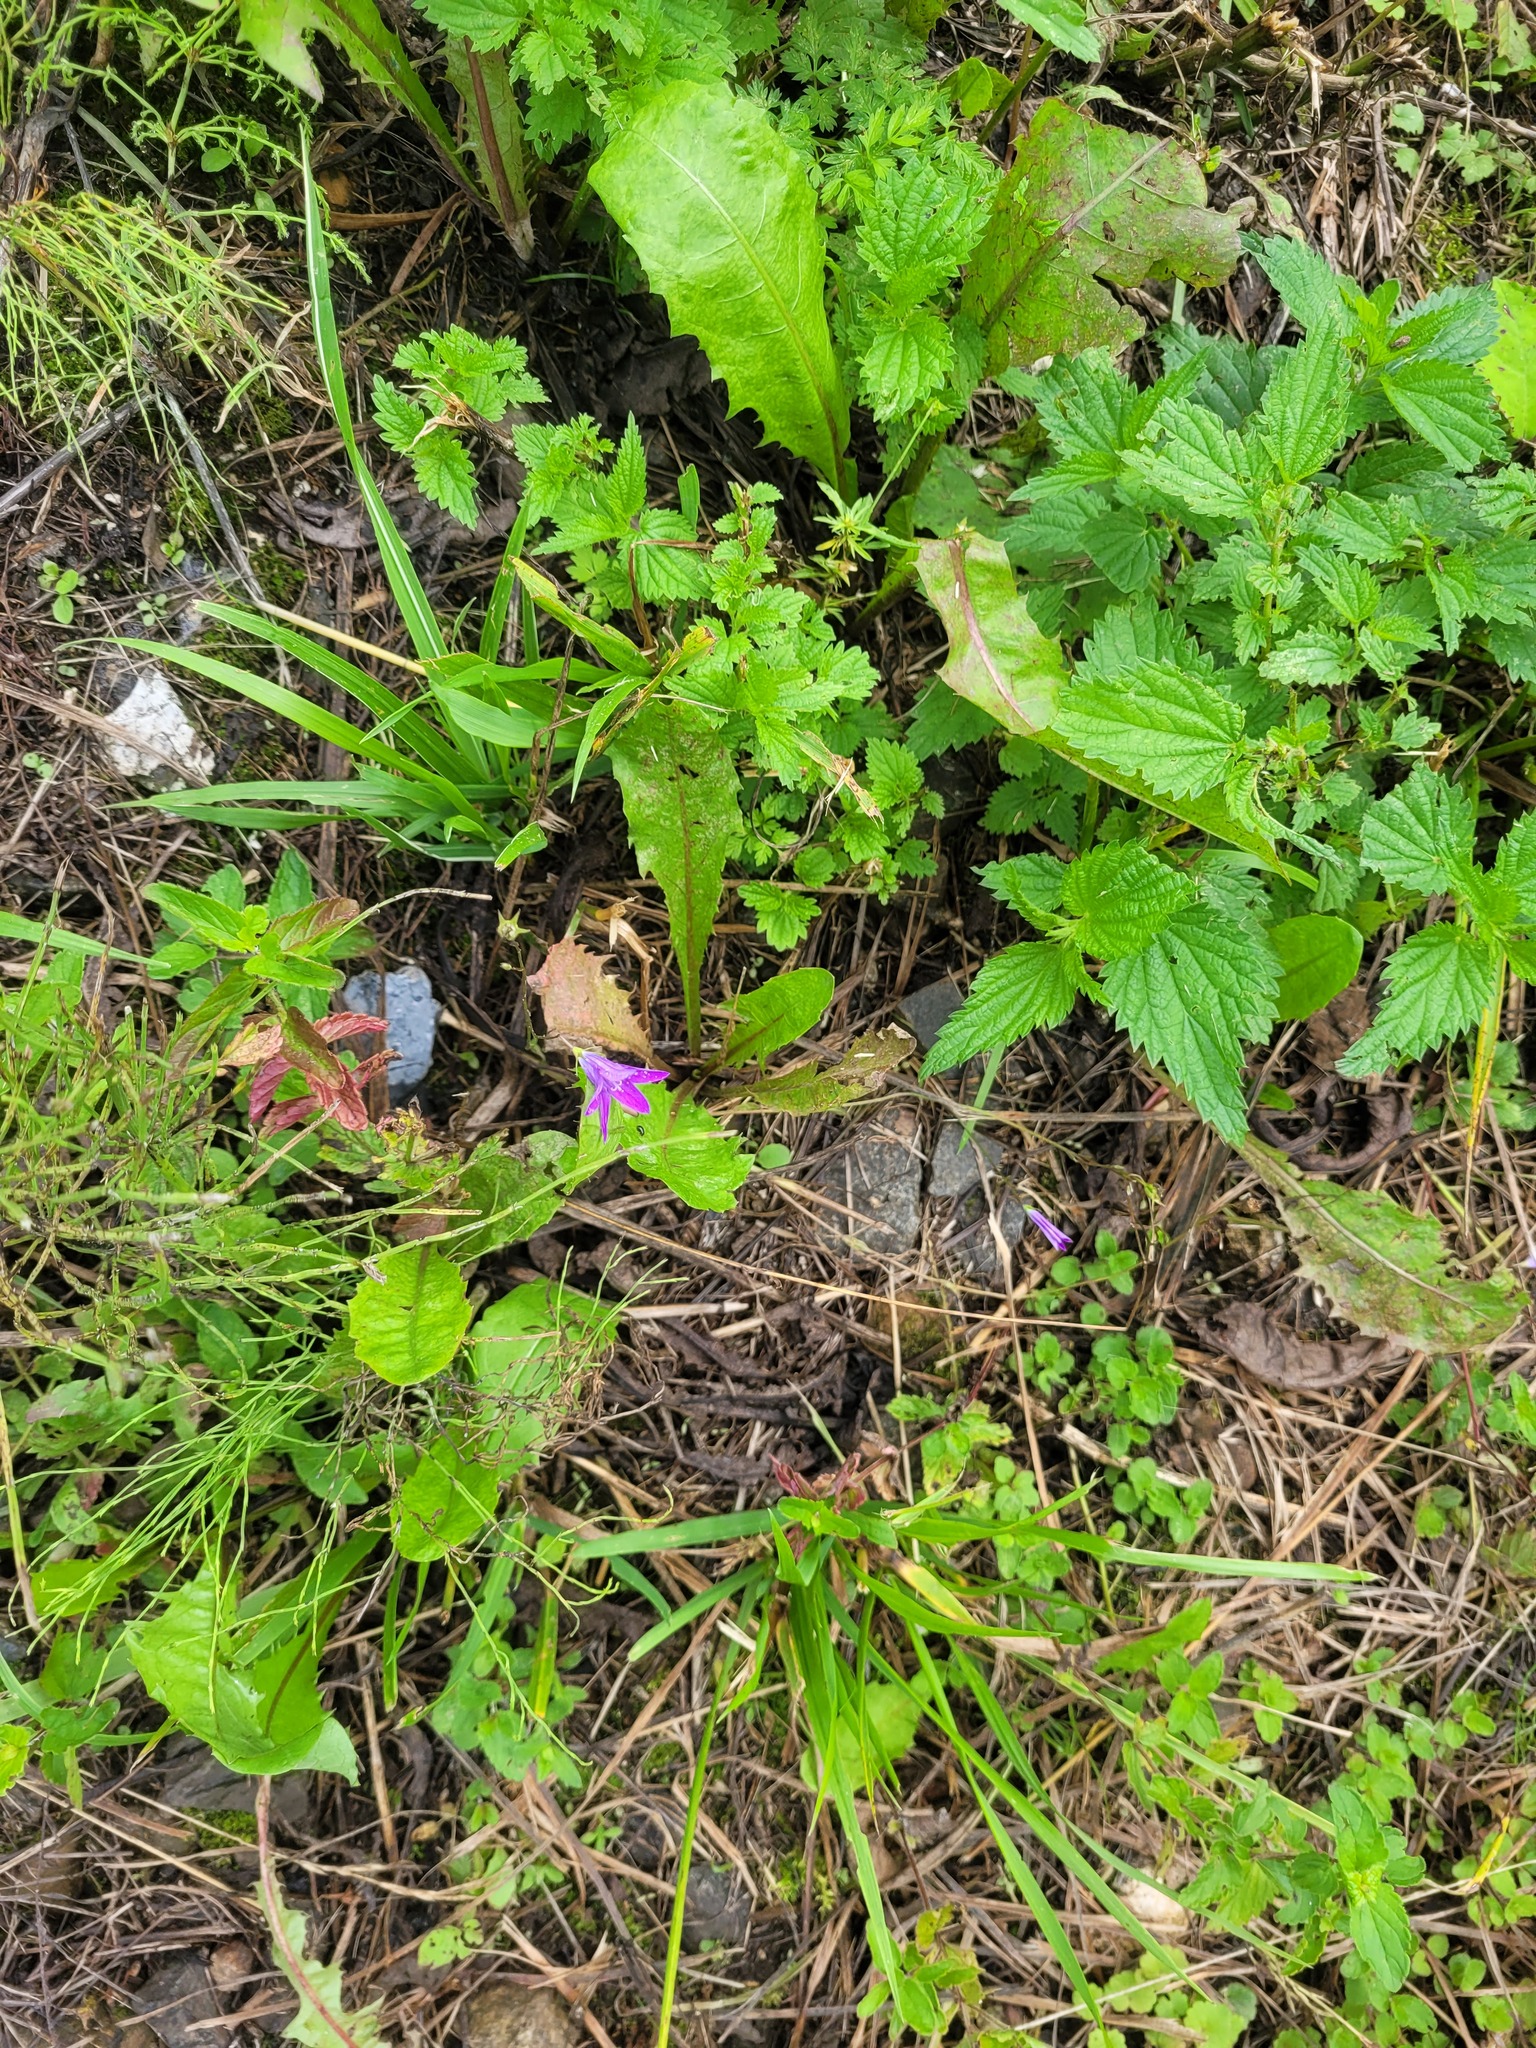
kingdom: Plantae
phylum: Tracheophyta
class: Magnoliopsida
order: Asterales
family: Campanulaceae
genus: Campanula
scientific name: Campanula patula
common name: Spreading bellflower
